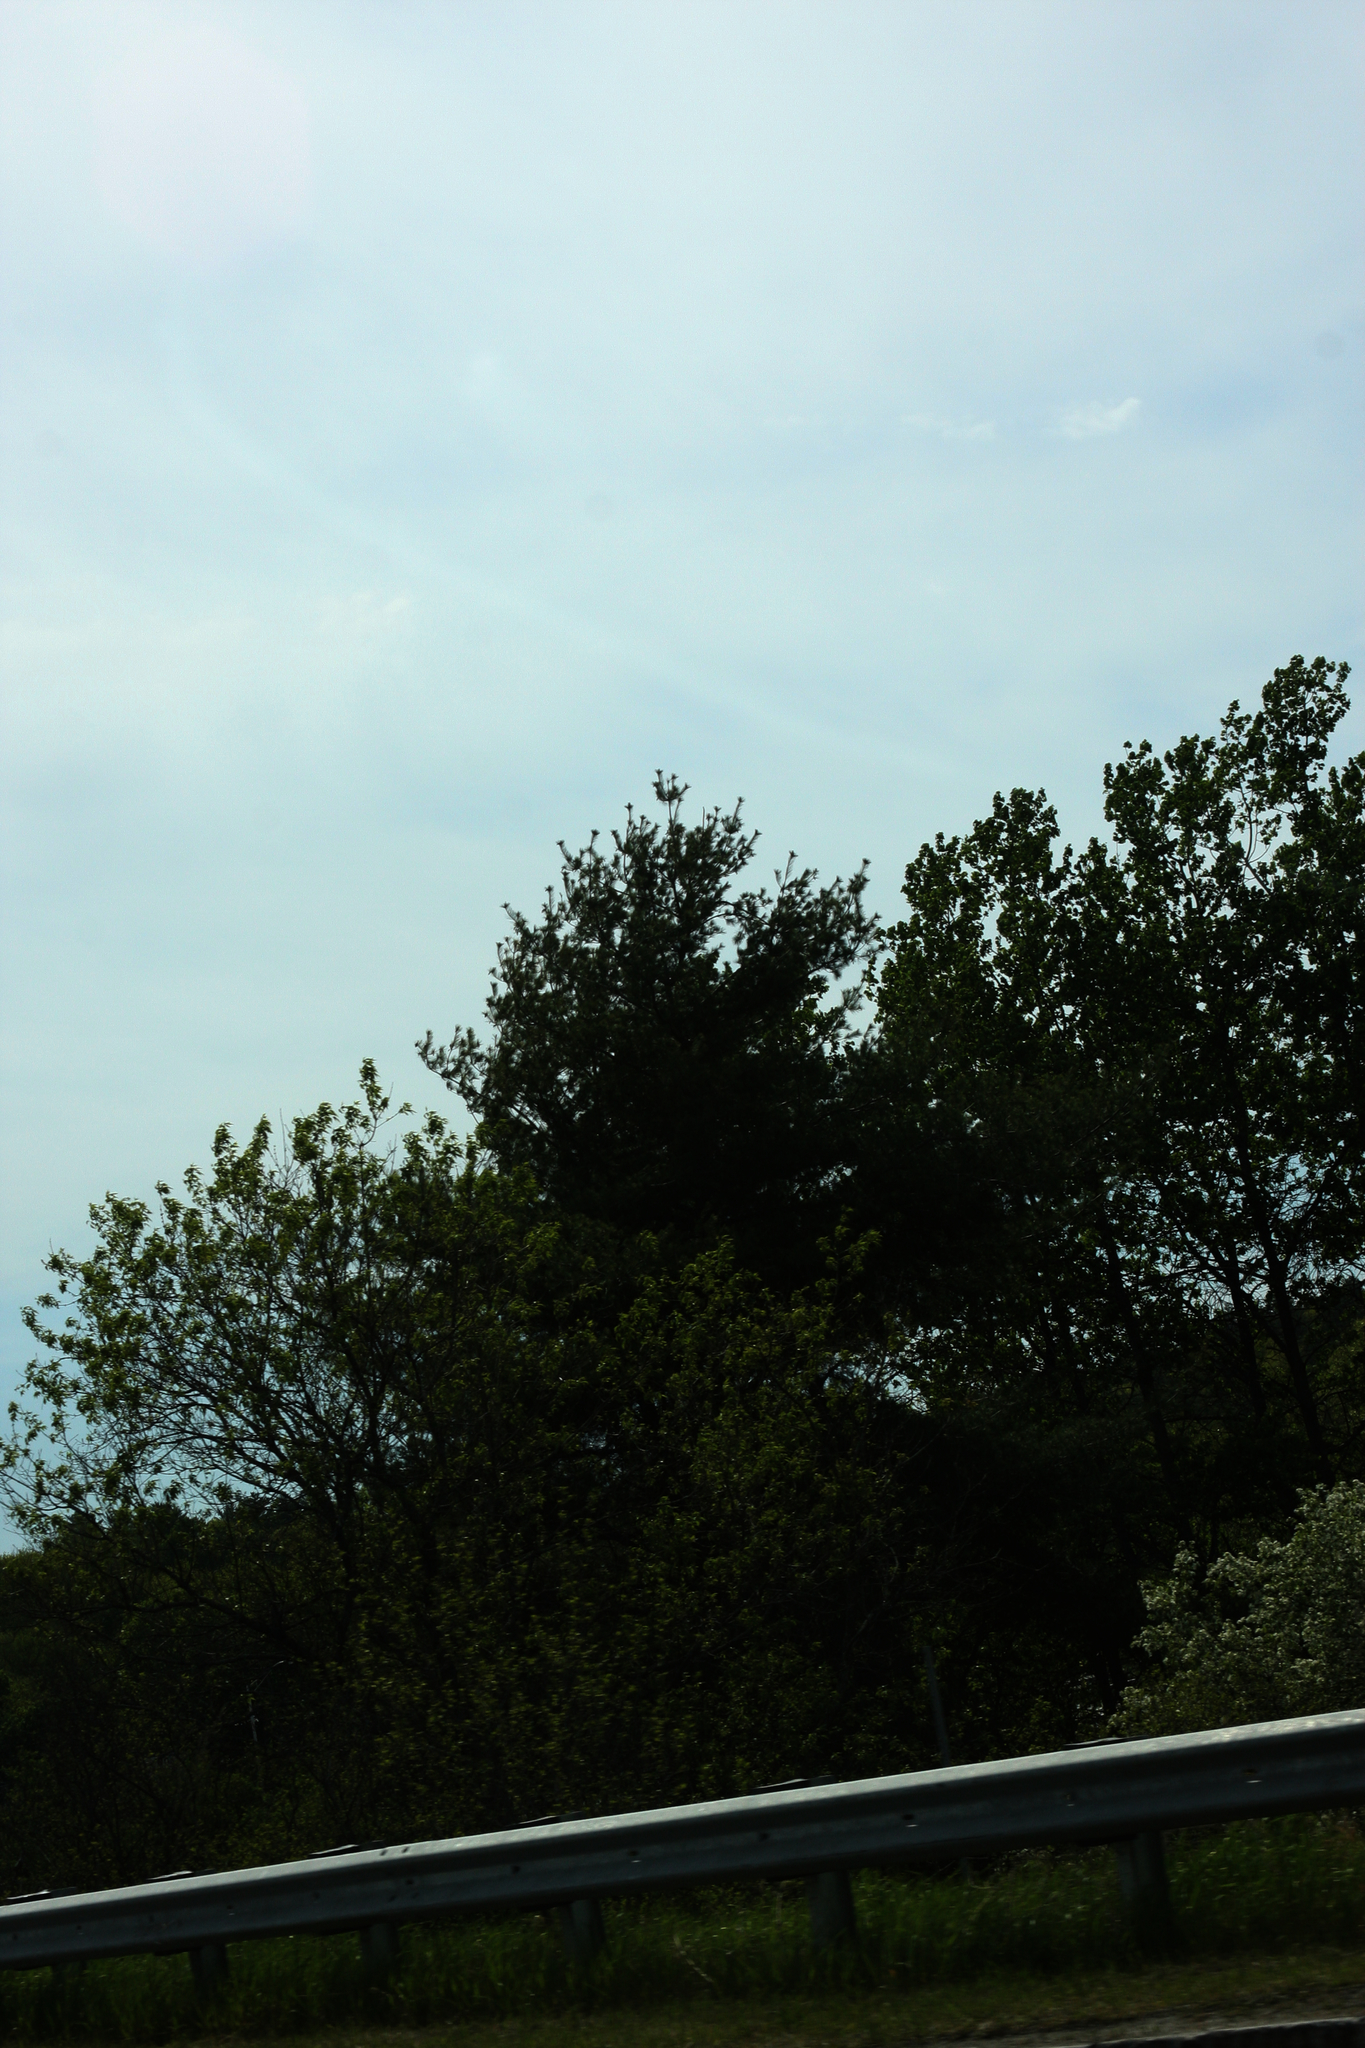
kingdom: Plantae
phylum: Tracheophyta
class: Pinopsida
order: Pinales
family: Pinaceae
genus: Pinus
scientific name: Pinus strobus
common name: Weymouth pine
